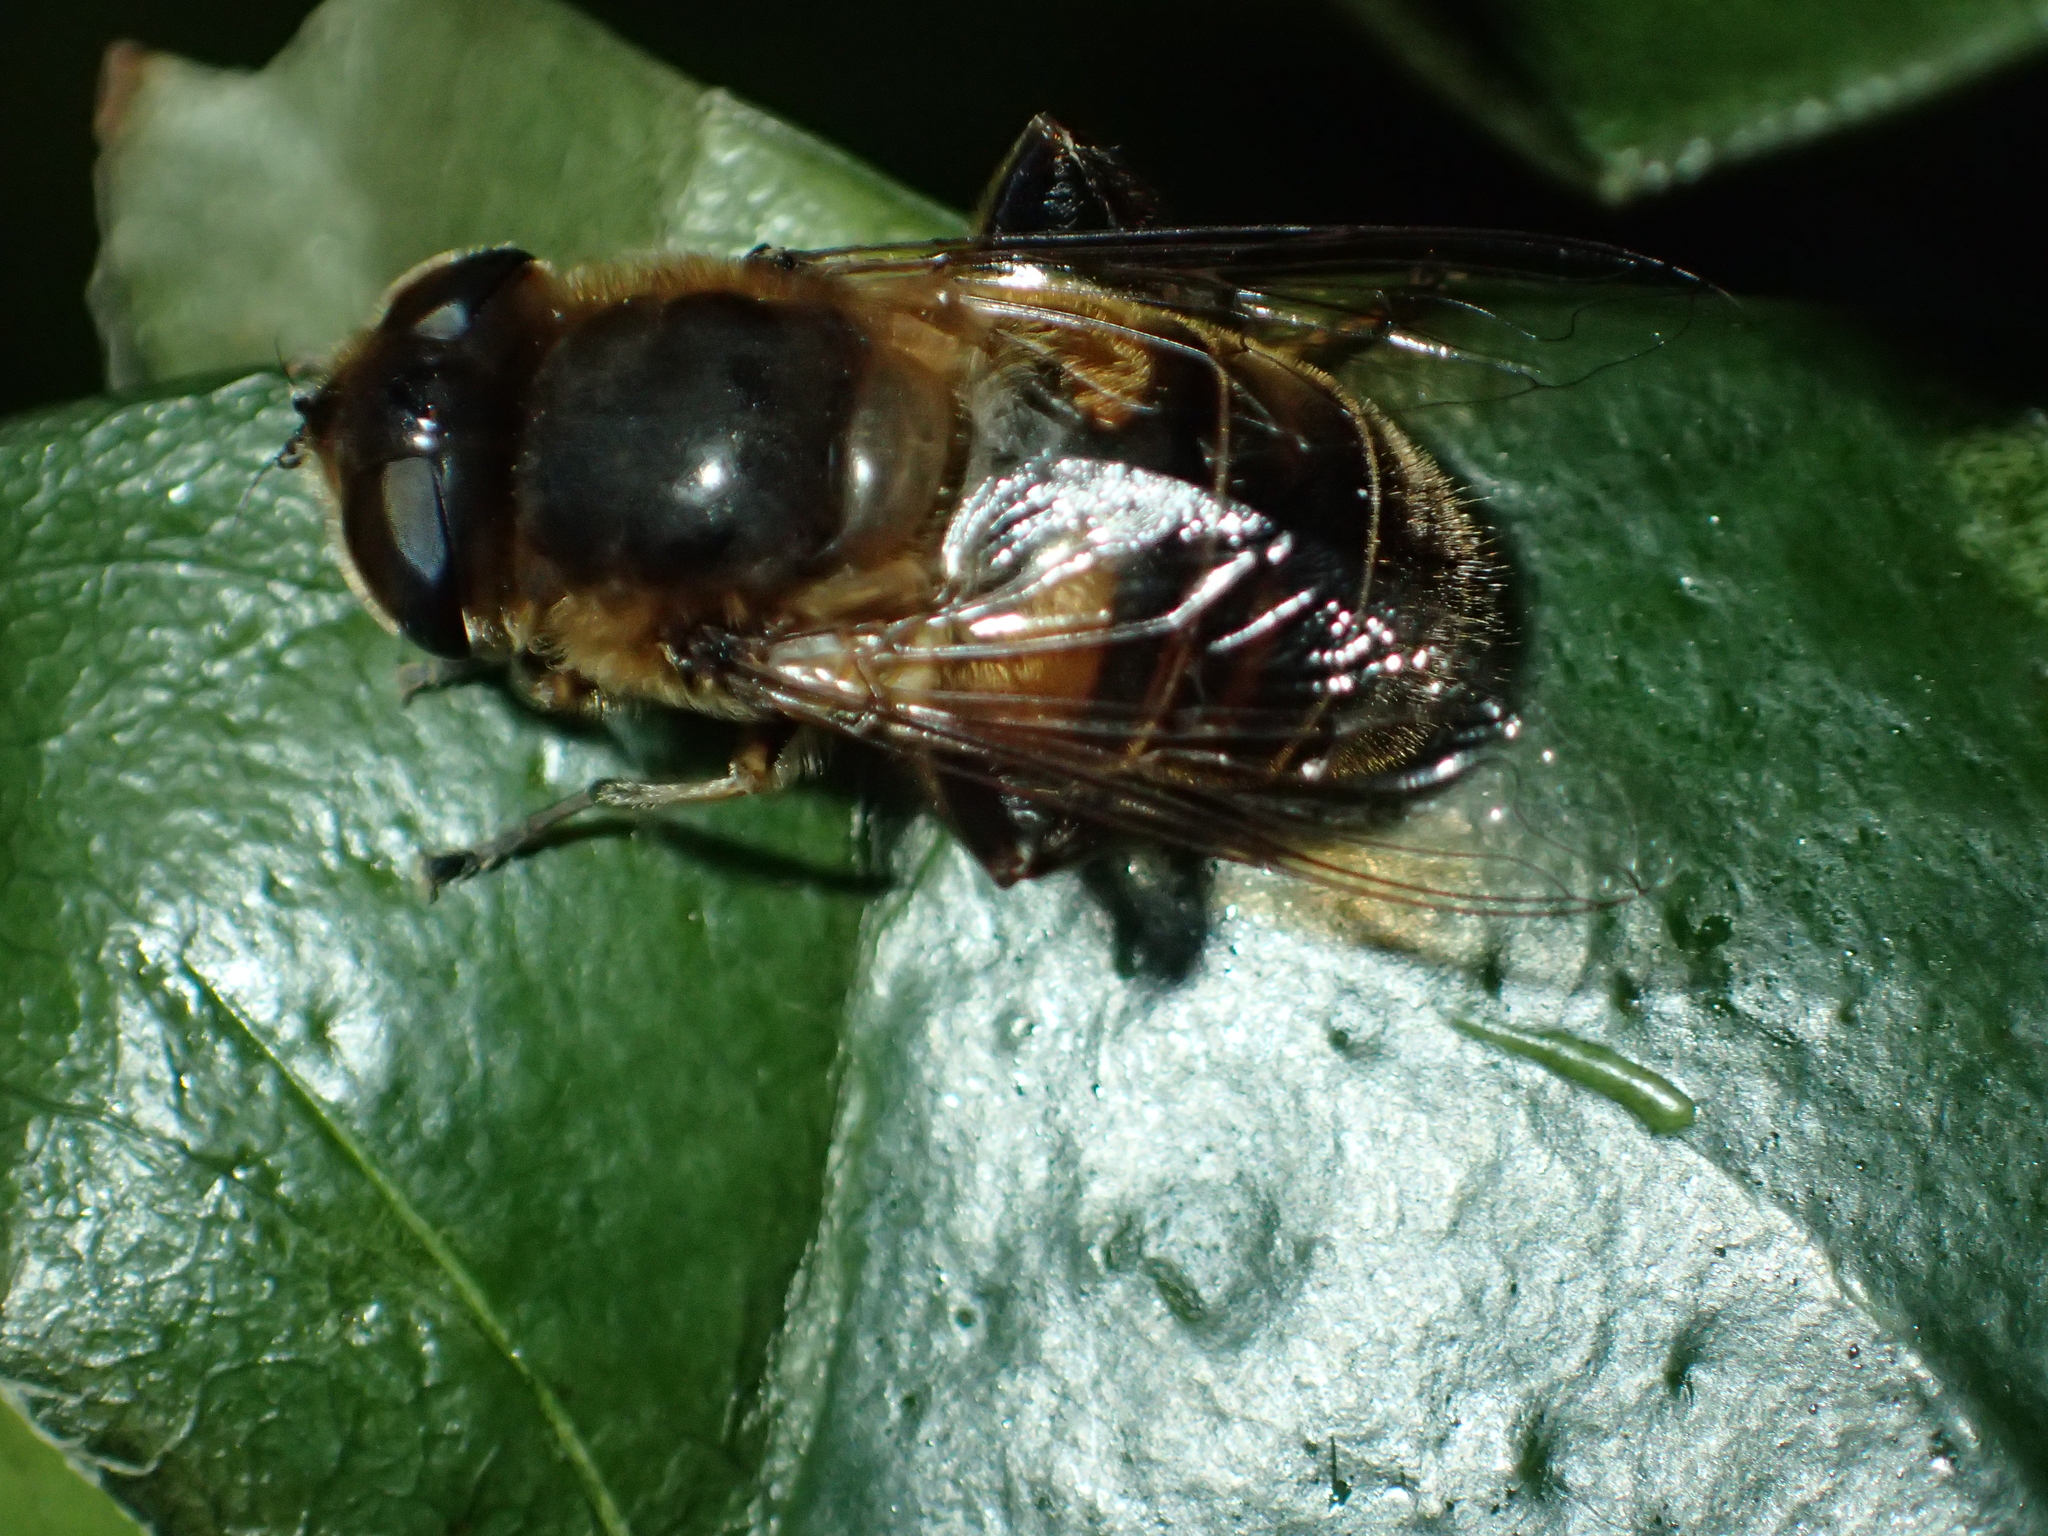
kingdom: Animalia
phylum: Arthropoda
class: Insecta
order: Diptera
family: Syrphidae
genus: Eristalis
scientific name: Eristalis tenax
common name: Drone fly
